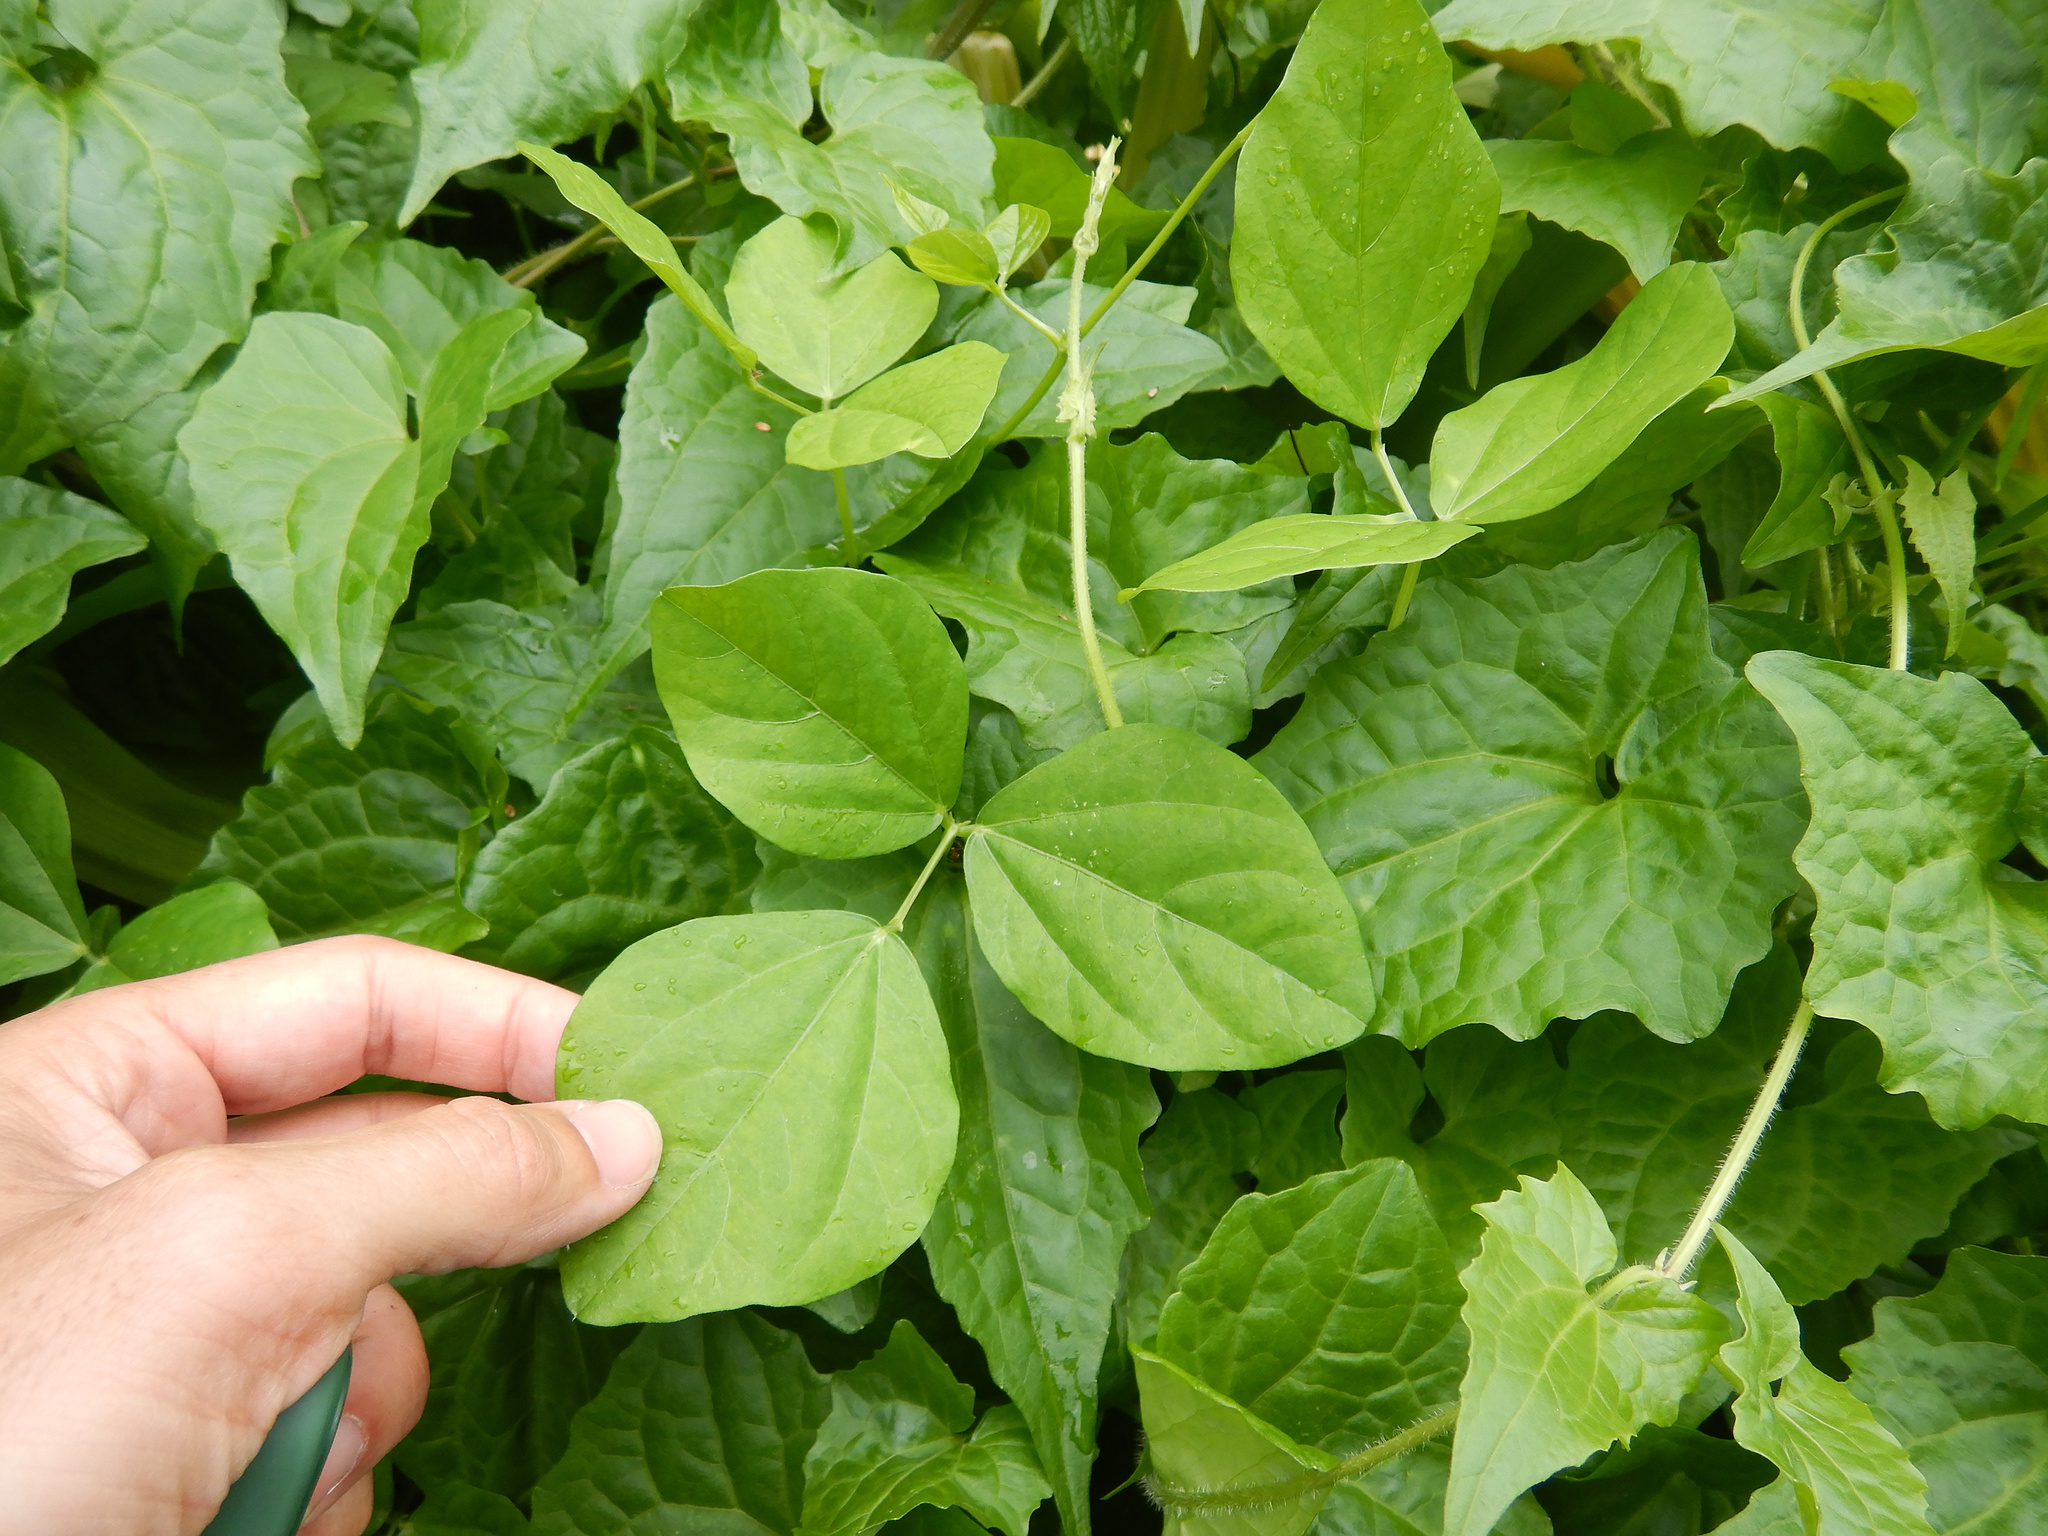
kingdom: Plantae
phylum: Tracheophyta
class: Magnoliopsida
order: Fabales
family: Fabaceae
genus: Vigna
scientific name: Vigna marina
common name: Dune-bean
